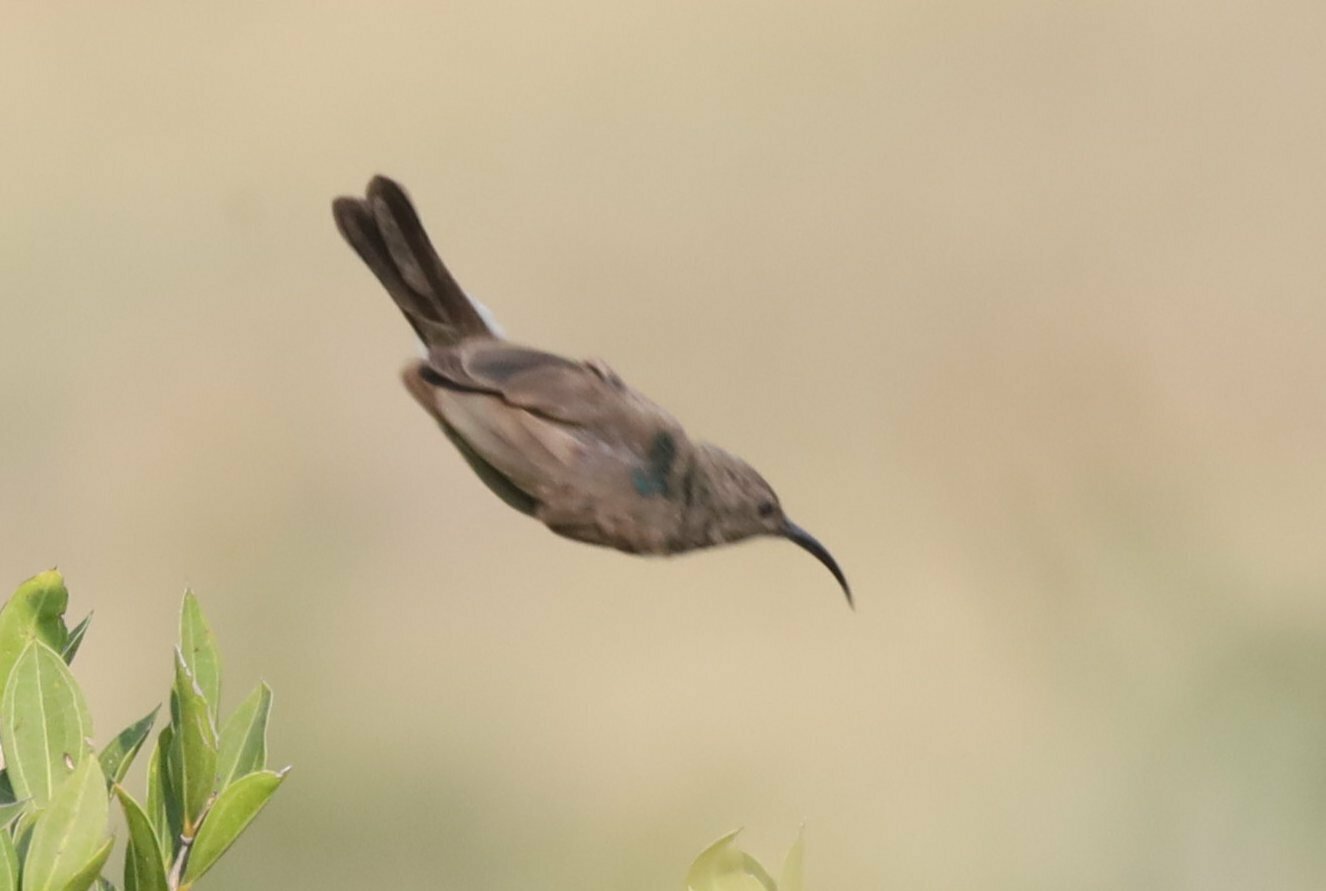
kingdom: Animalia
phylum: Chordata
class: Aves
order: Passeriformes
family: Nectariniidae
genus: Cinnyris
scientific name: Cinnyris afer
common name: Greater double-collared sunbird
